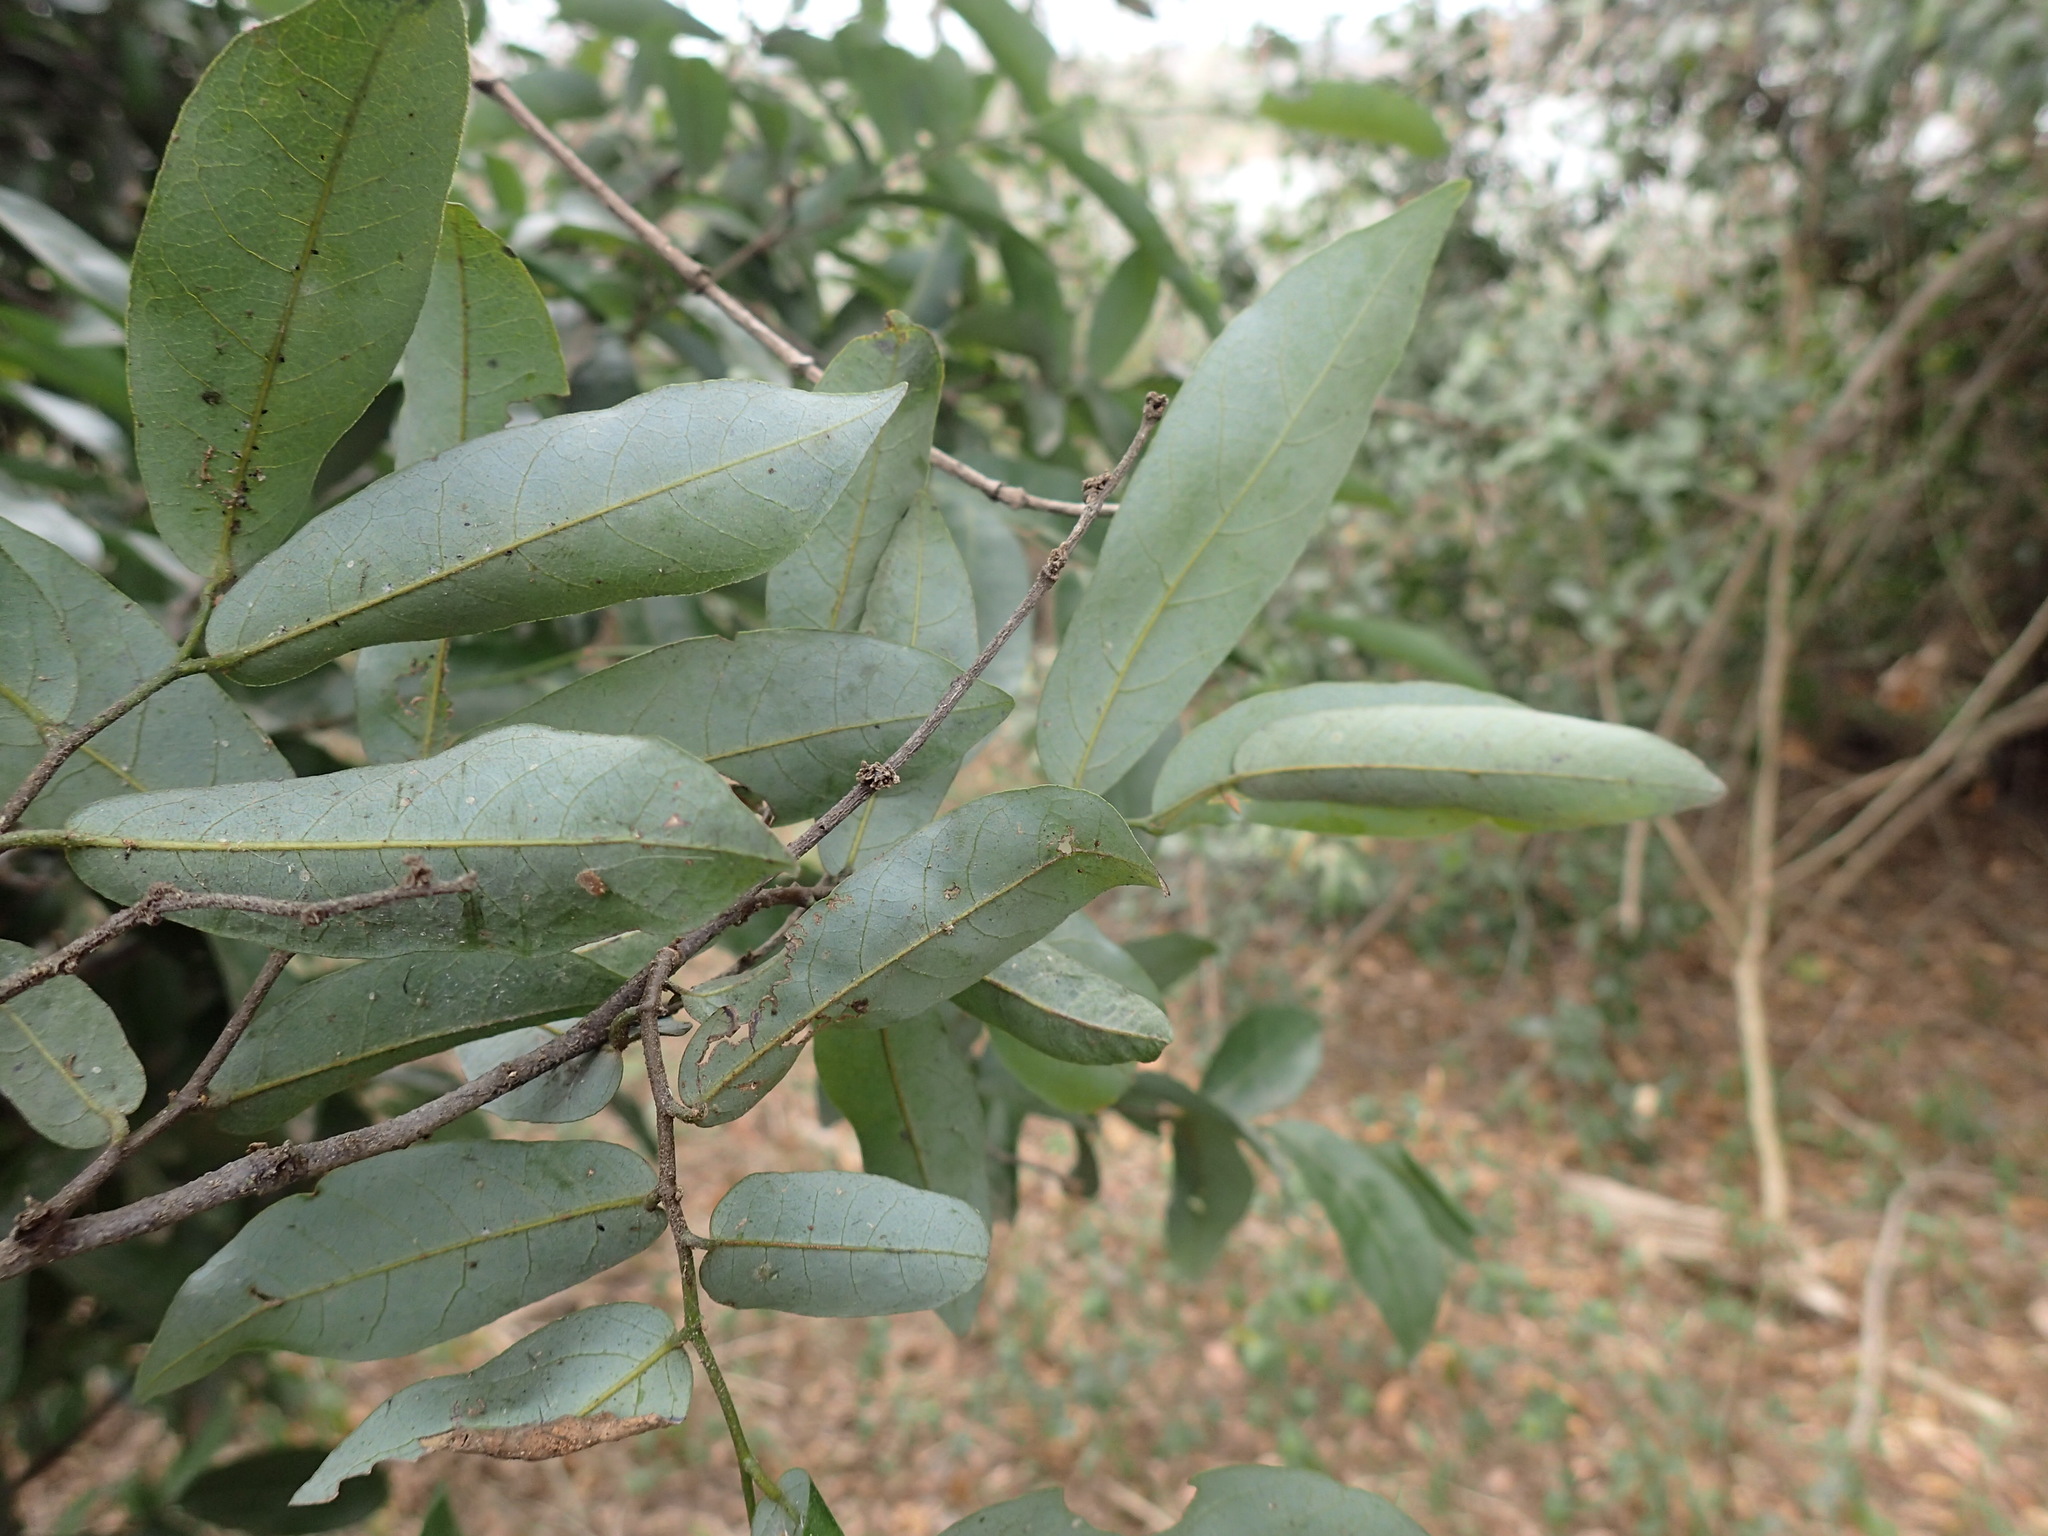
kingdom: Plantae
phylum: Tracheophyta
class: Magnoliopsida
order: Magnoliales
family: Annonaceae
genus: Monanthotaxis
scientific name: Monanthotaxis caffra
